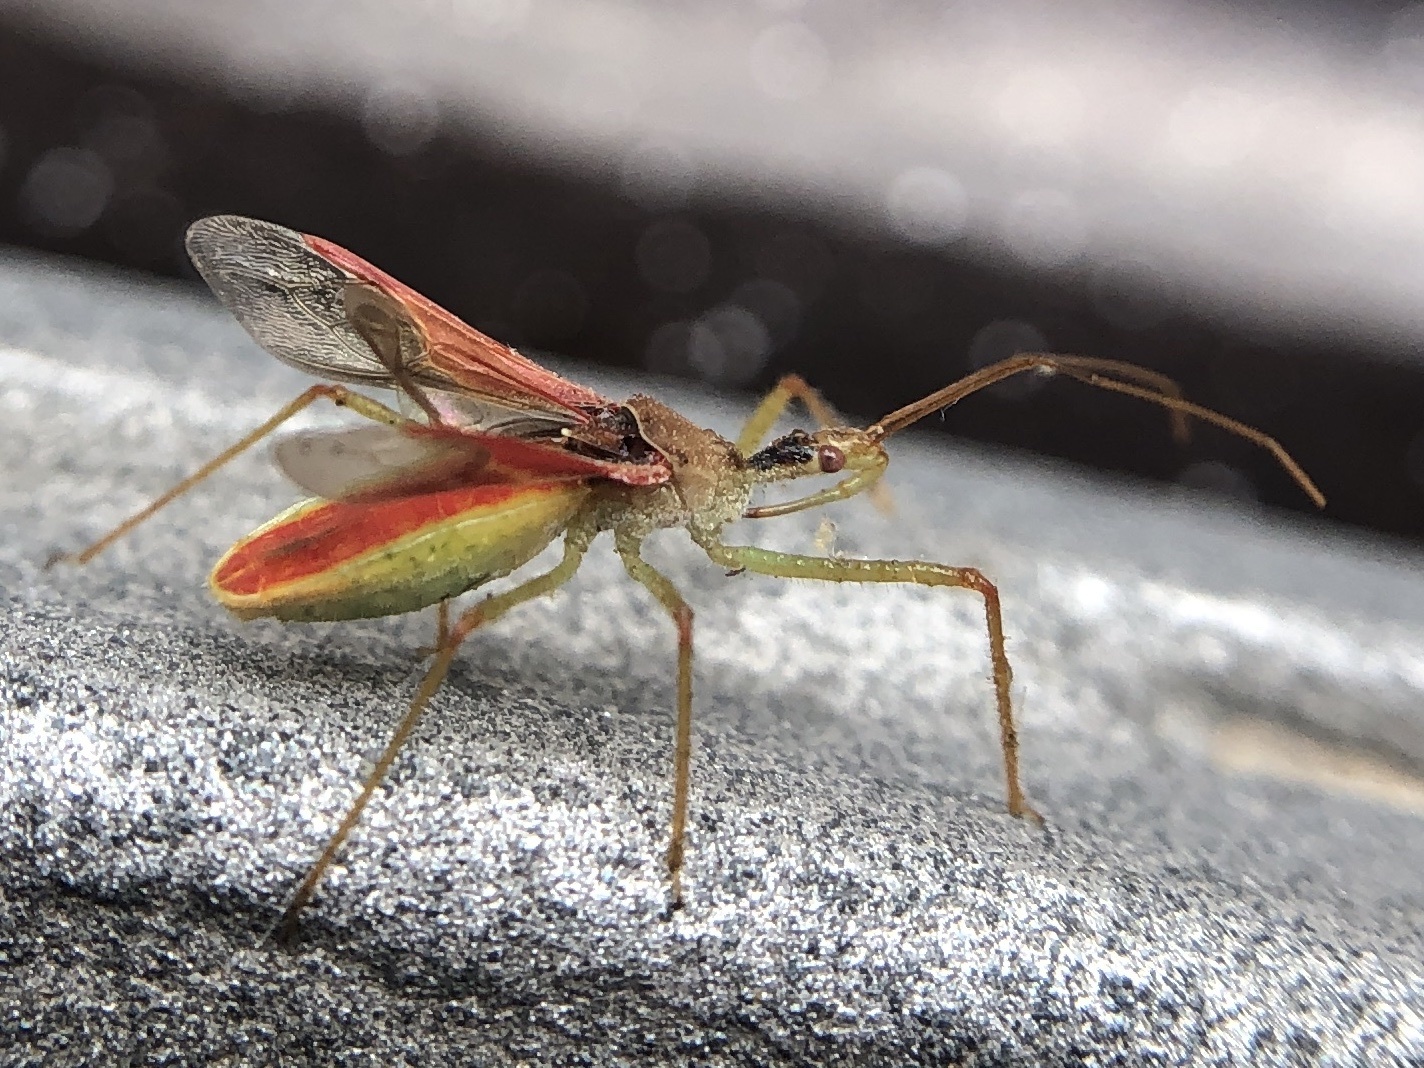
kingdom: Animalia
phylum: Arthropoda
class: Insecta
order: Hemiptera
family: Reduviidae
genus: Zelus
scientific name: Zelus renardii
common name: Assassin bug
